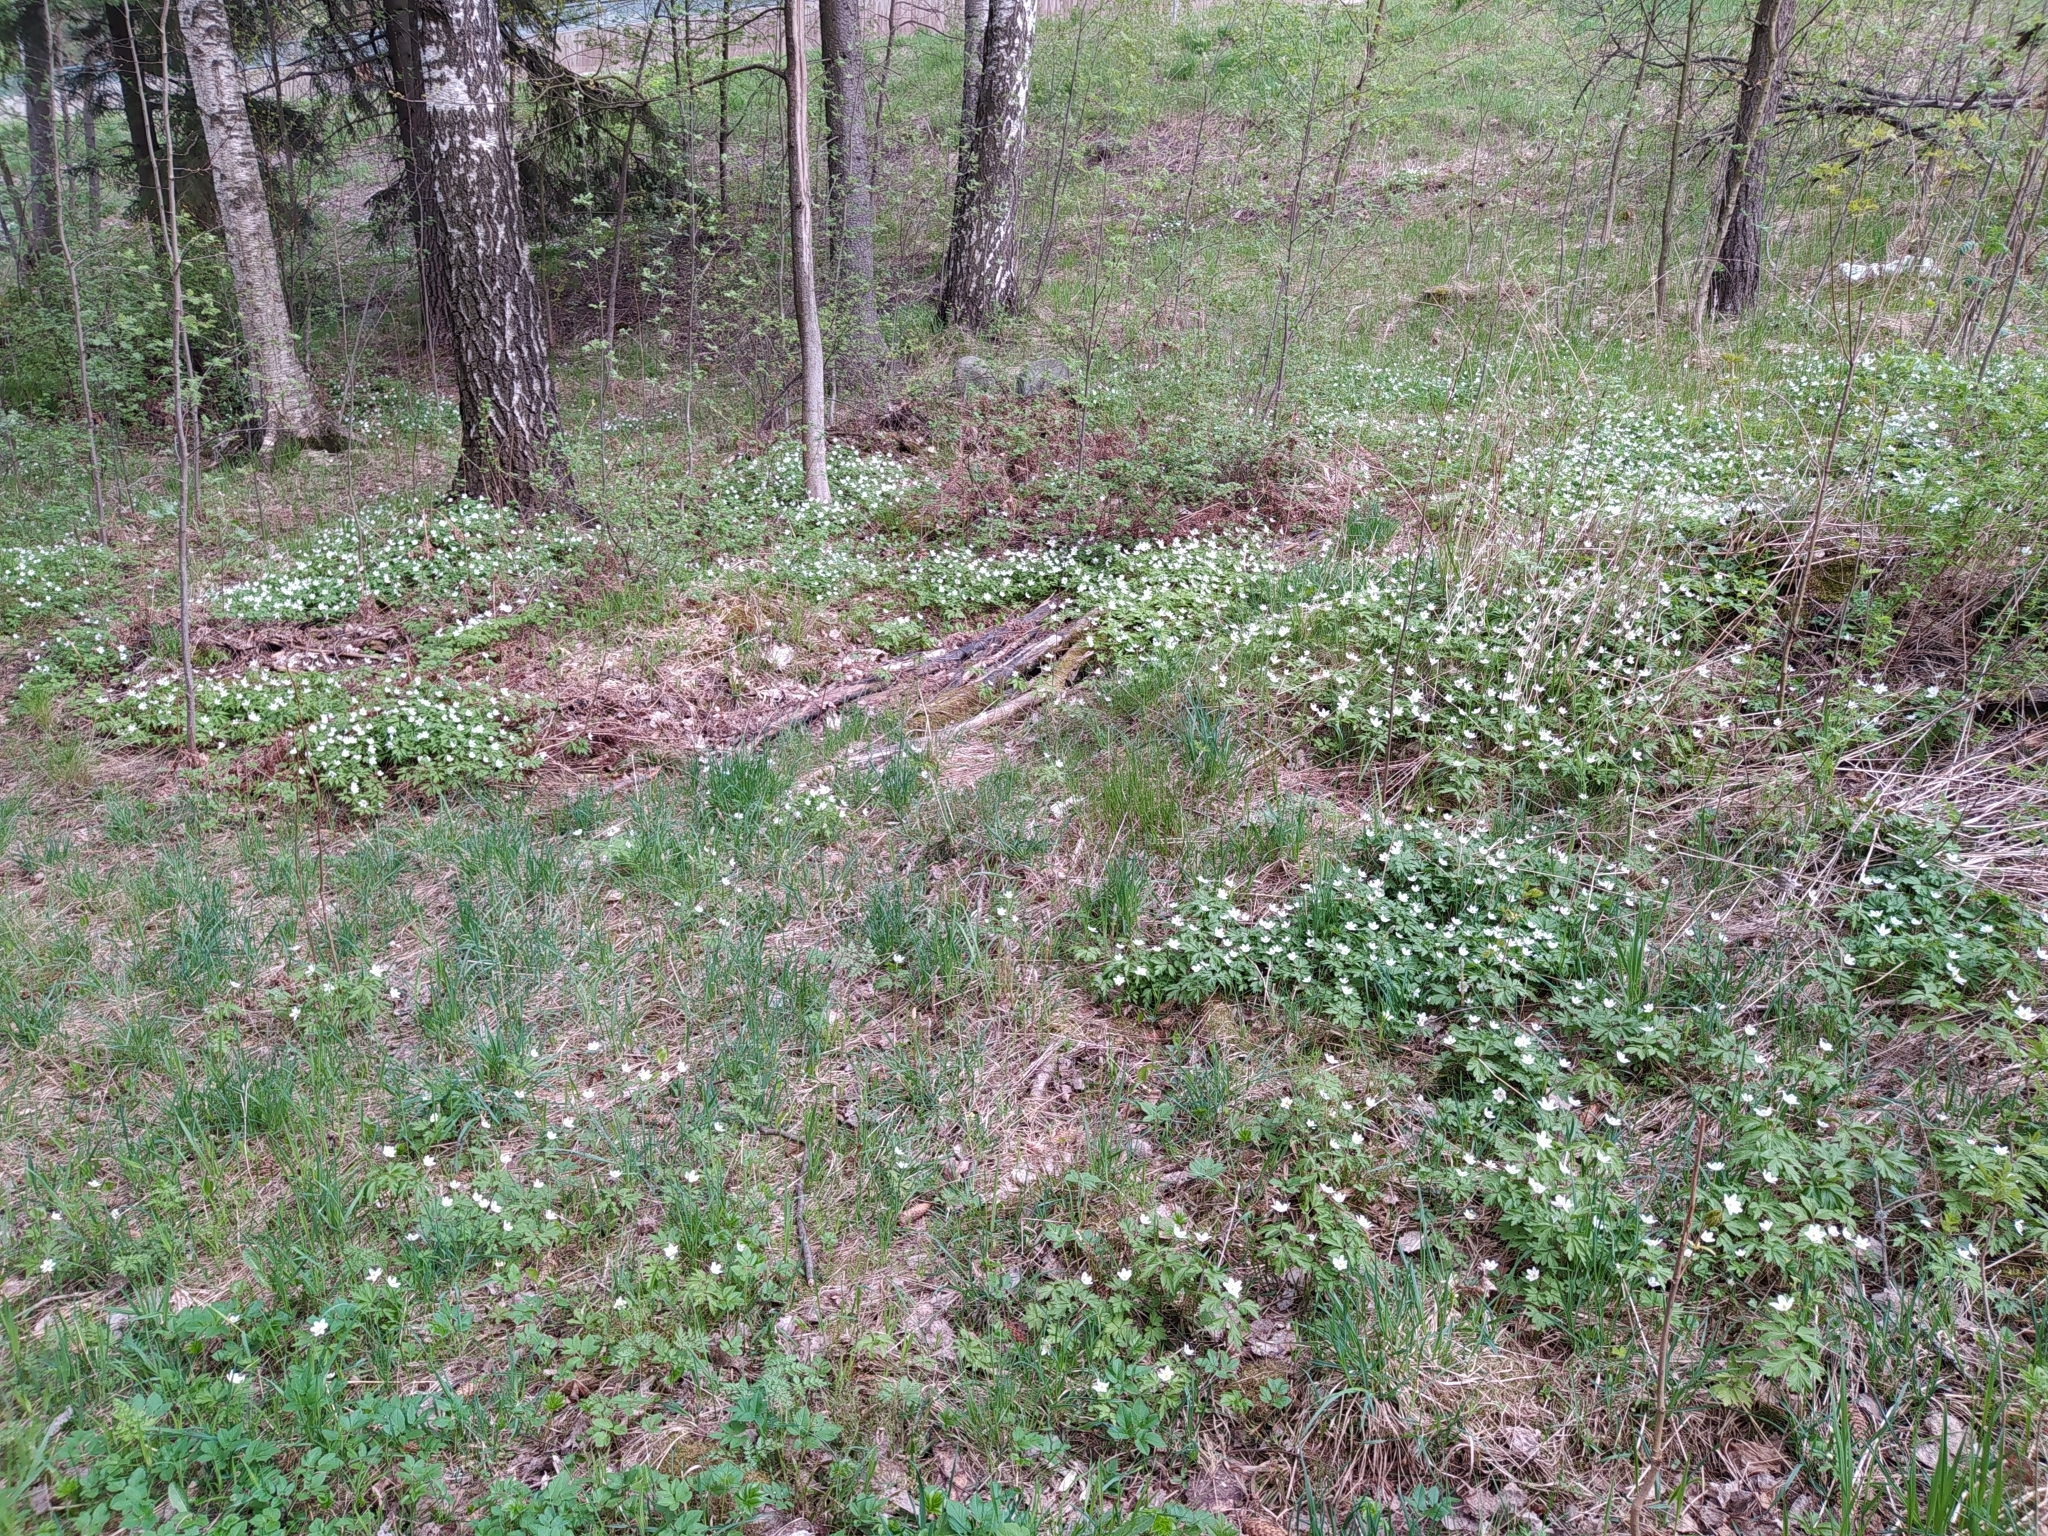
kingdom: Plantae
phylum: Tracheophyta
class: Magnoliopsida
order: Ranunculales
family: Ranunculaceae
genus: Anemone
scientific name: Anemone nemorosa
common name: Wood anemone
